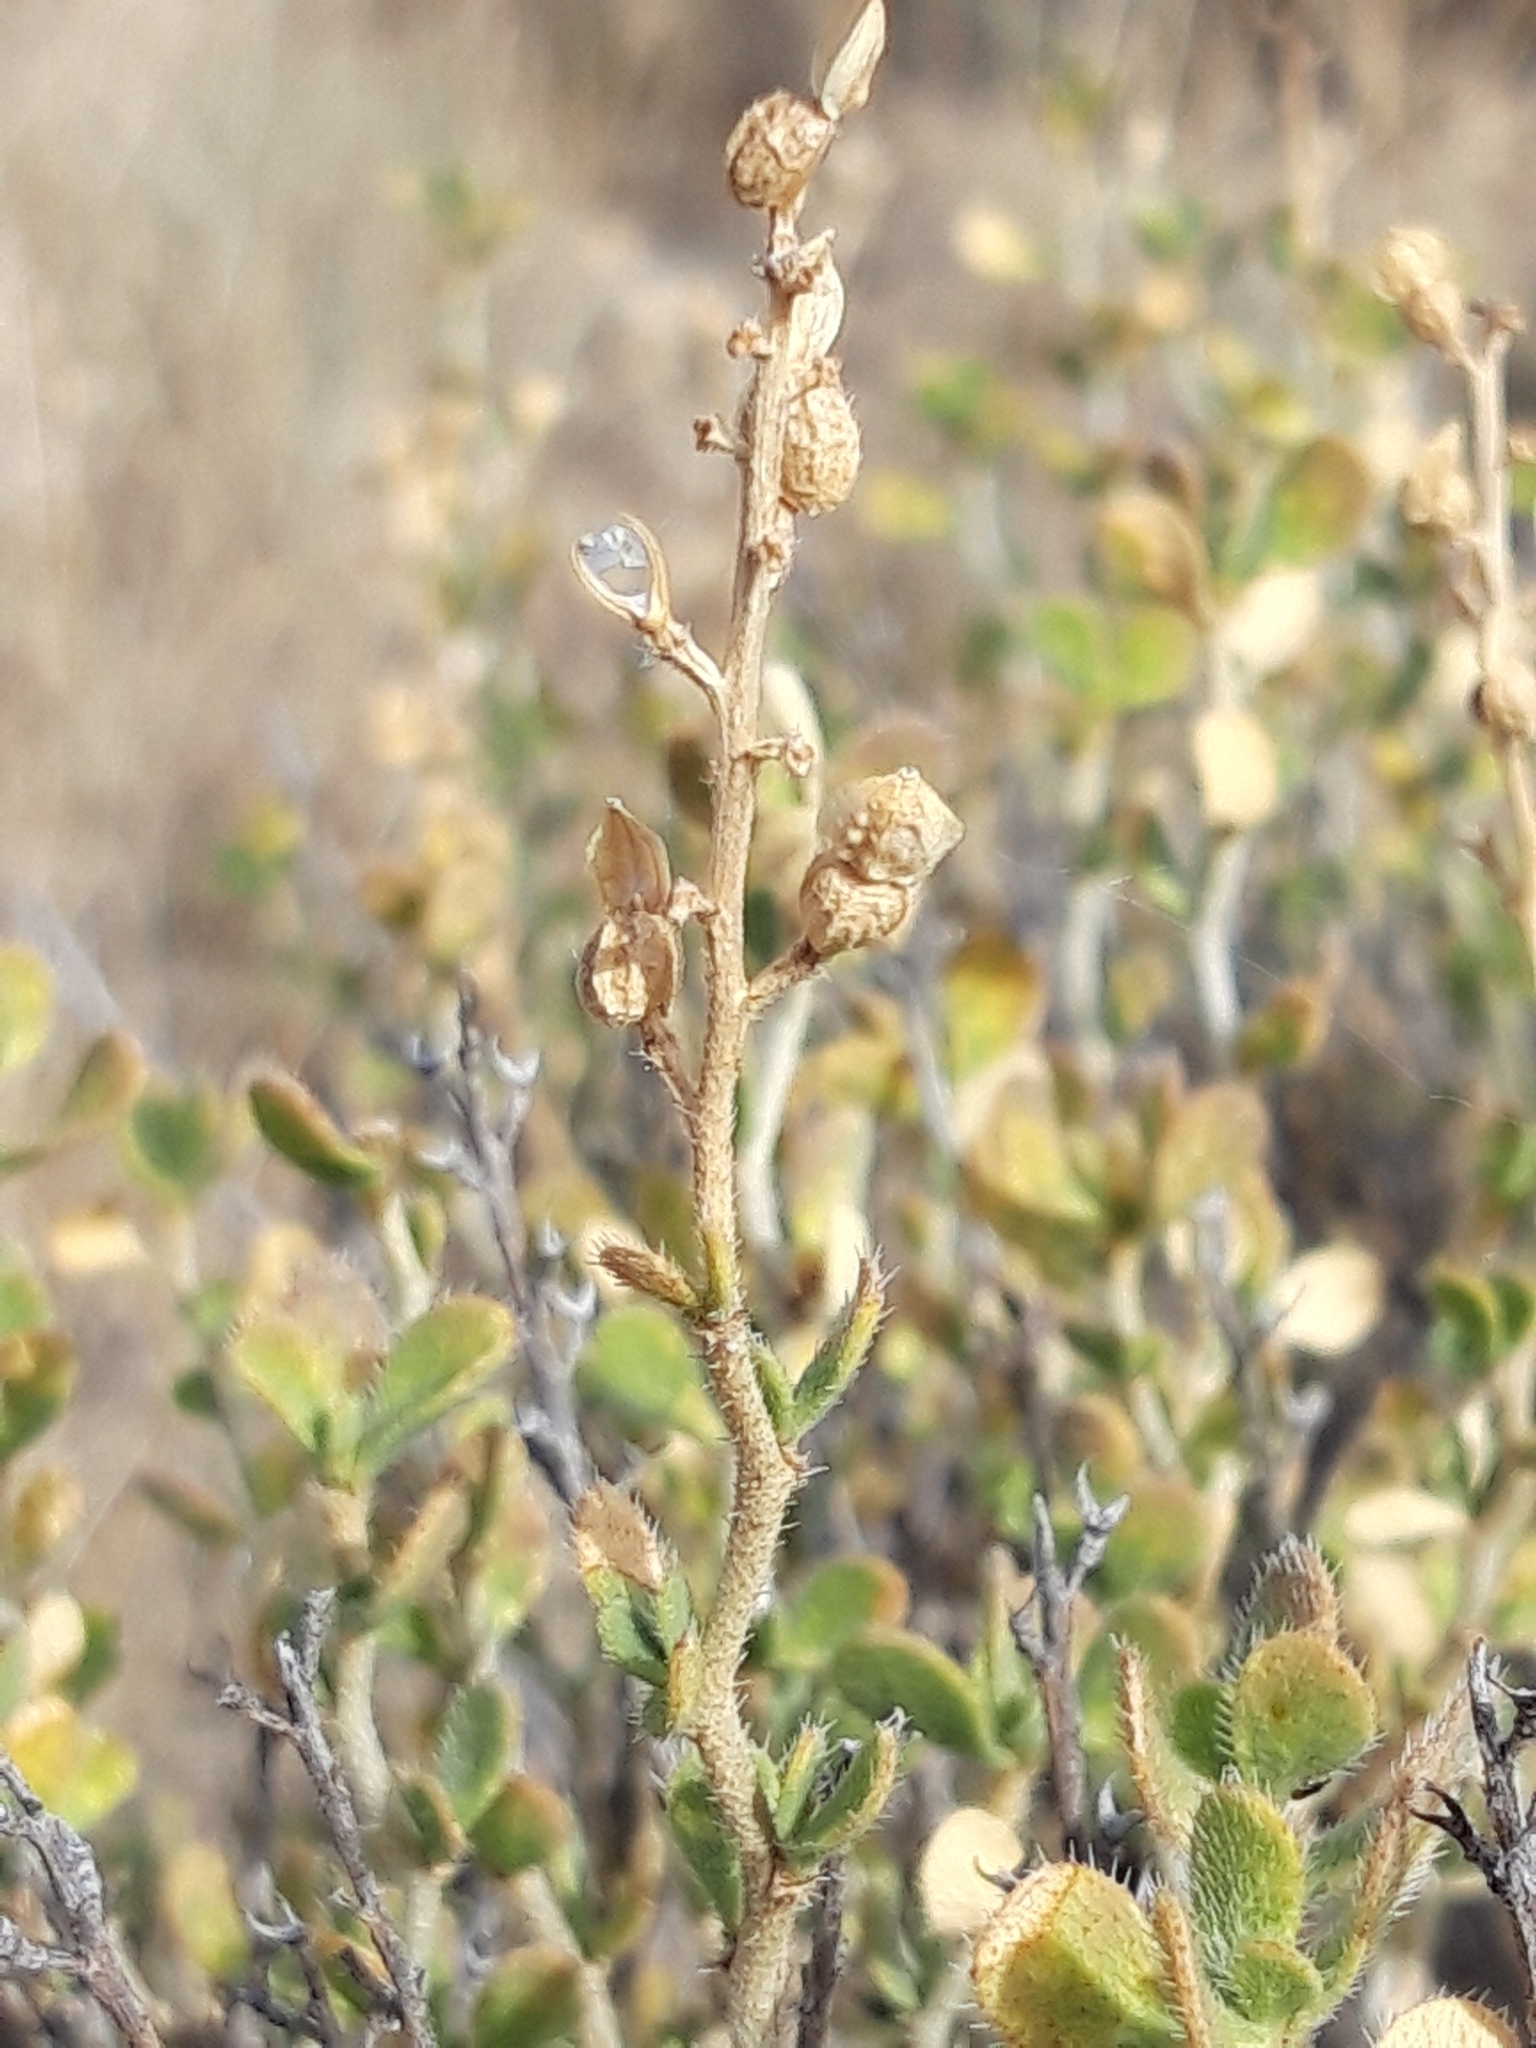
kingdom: Plantae
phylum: Tracheophyta
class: Magnoliopsida
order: Brassicales
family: Brassicaceae
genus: Vella
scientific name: Vella pseudocytisus
